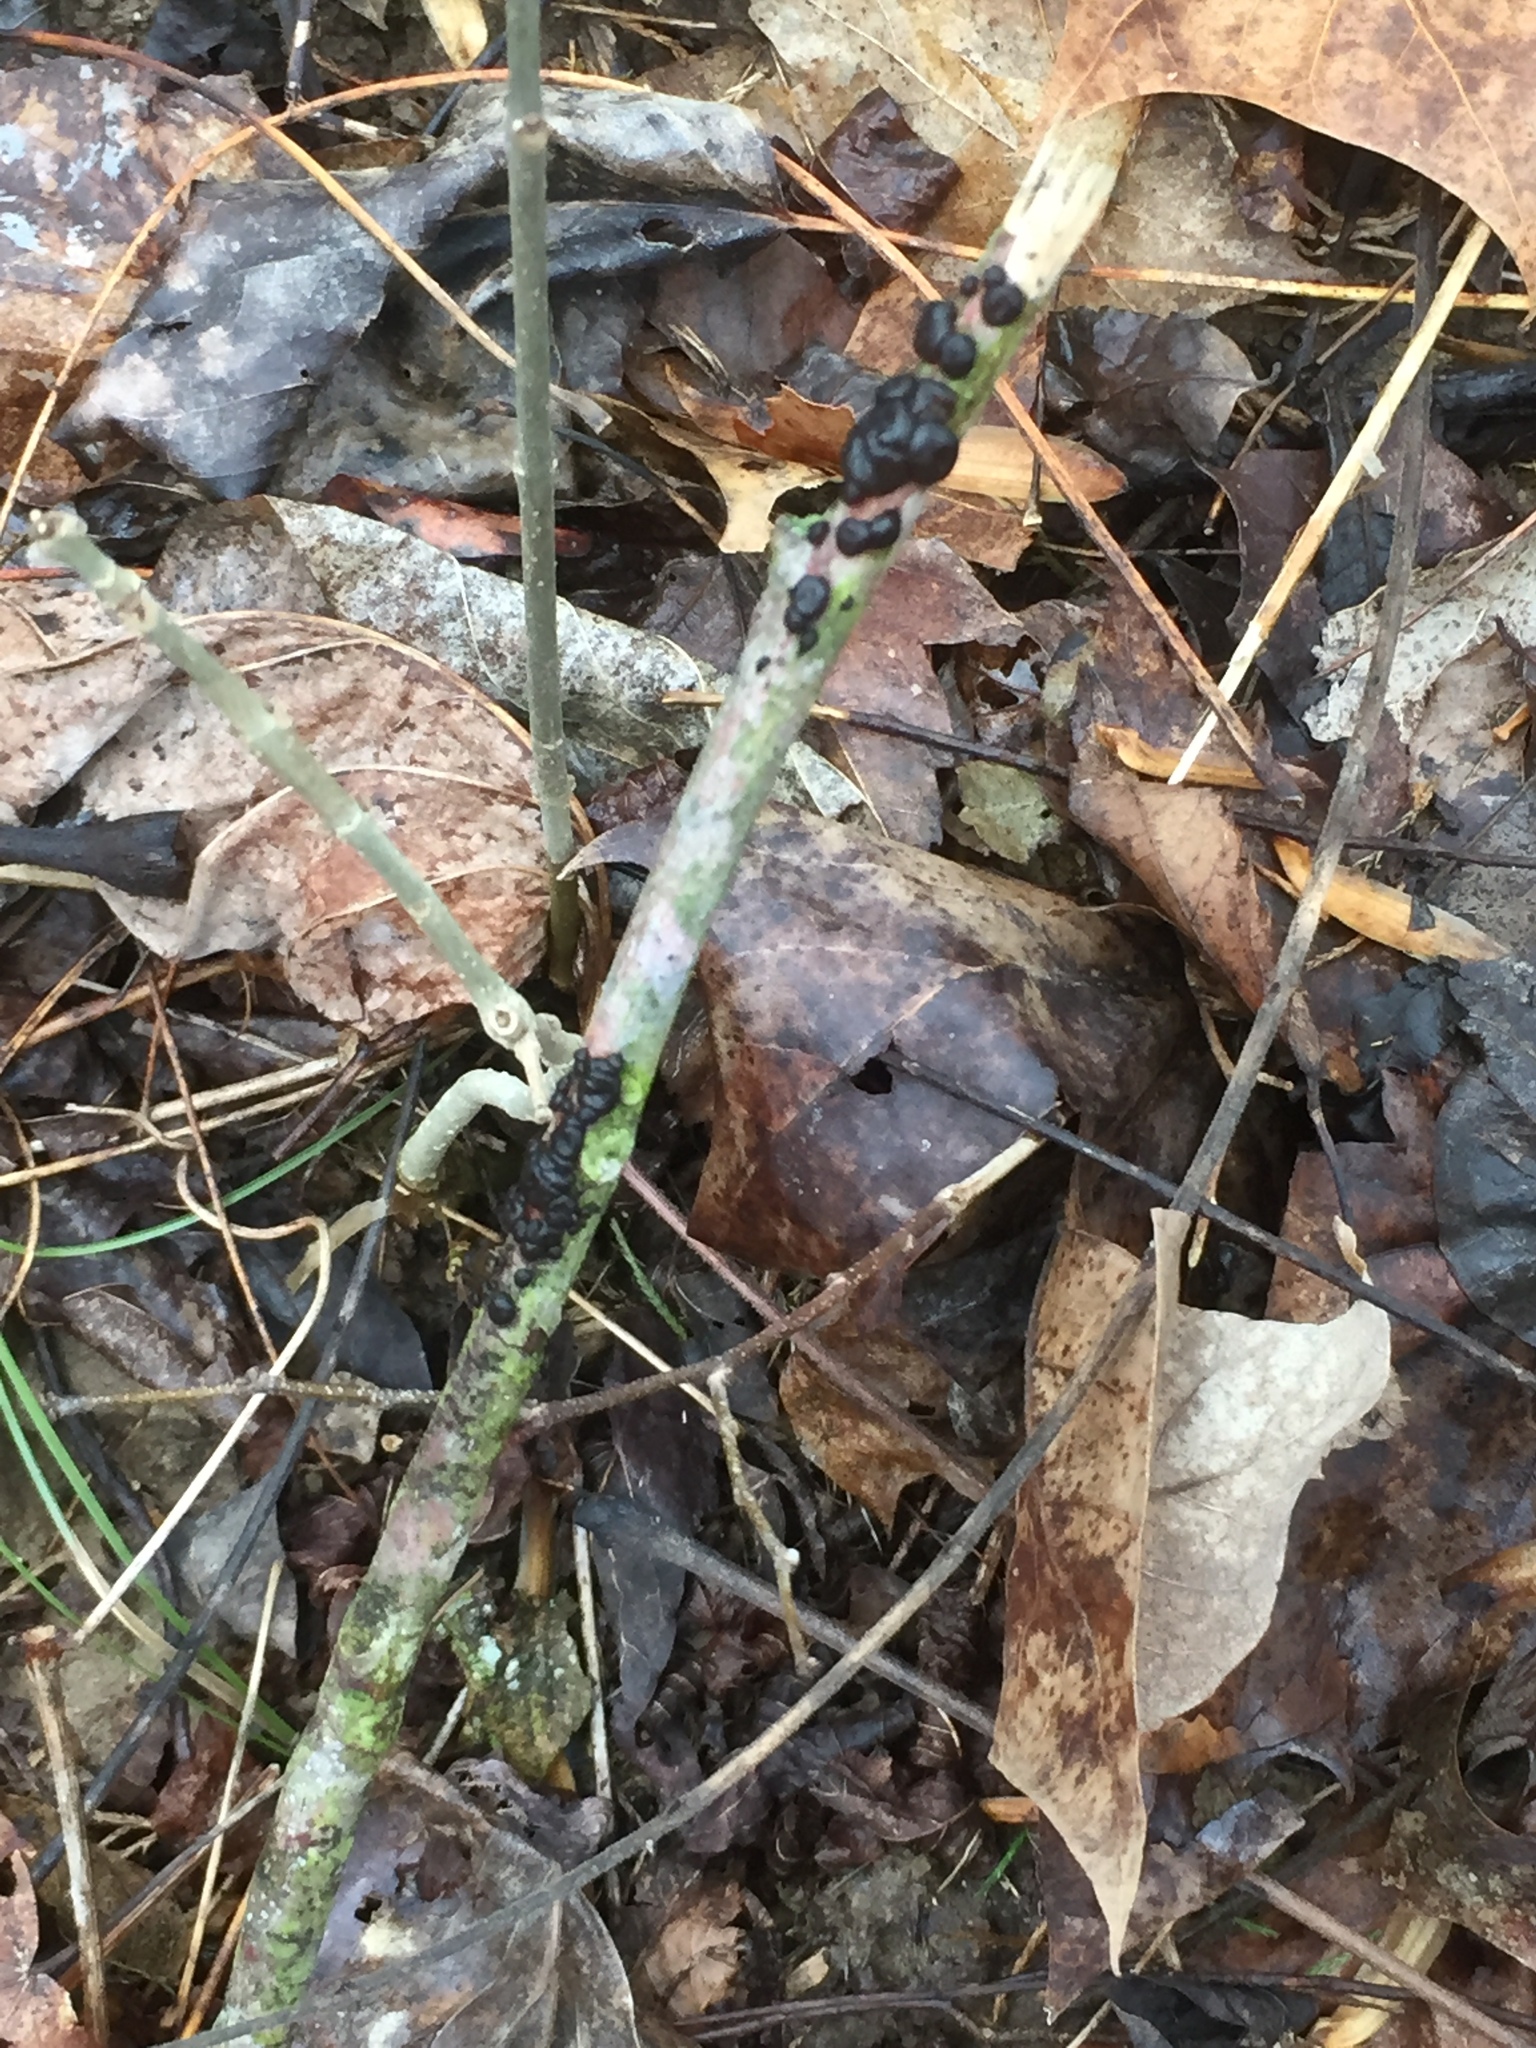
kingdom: Fungi
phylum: Basidiomycota
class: Agaricomycetes
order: Auriculariales
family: Auriculariaceae
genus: Exidia
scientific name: Exidia glandulosa
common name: Witches' butter
